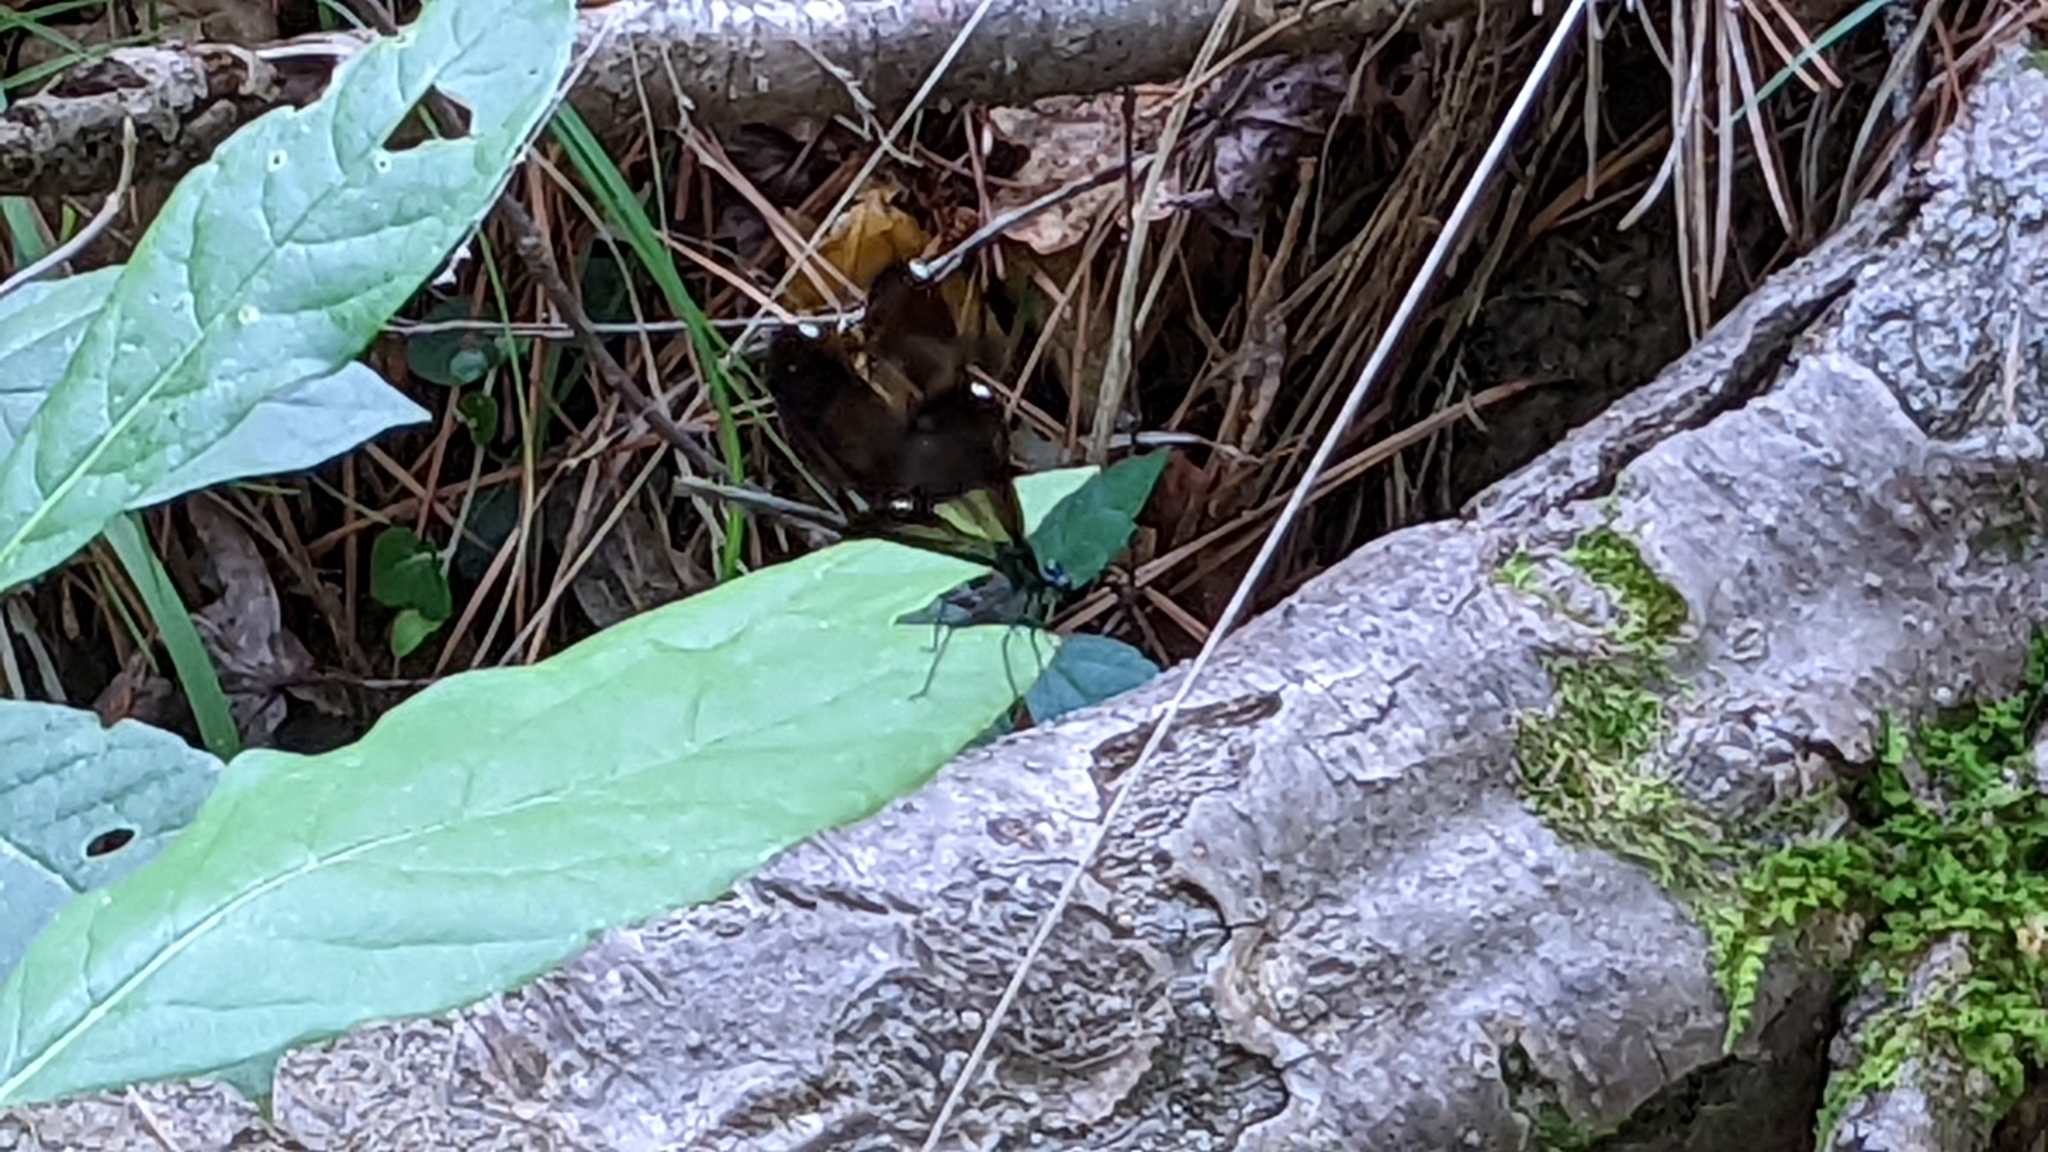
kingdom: Animalia
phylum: Arthropoda
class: Insecta
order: Odonata
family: Calopterygidae
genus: Calopteryx
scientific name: Calopteryx maculata
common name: Ebony jewelwing
